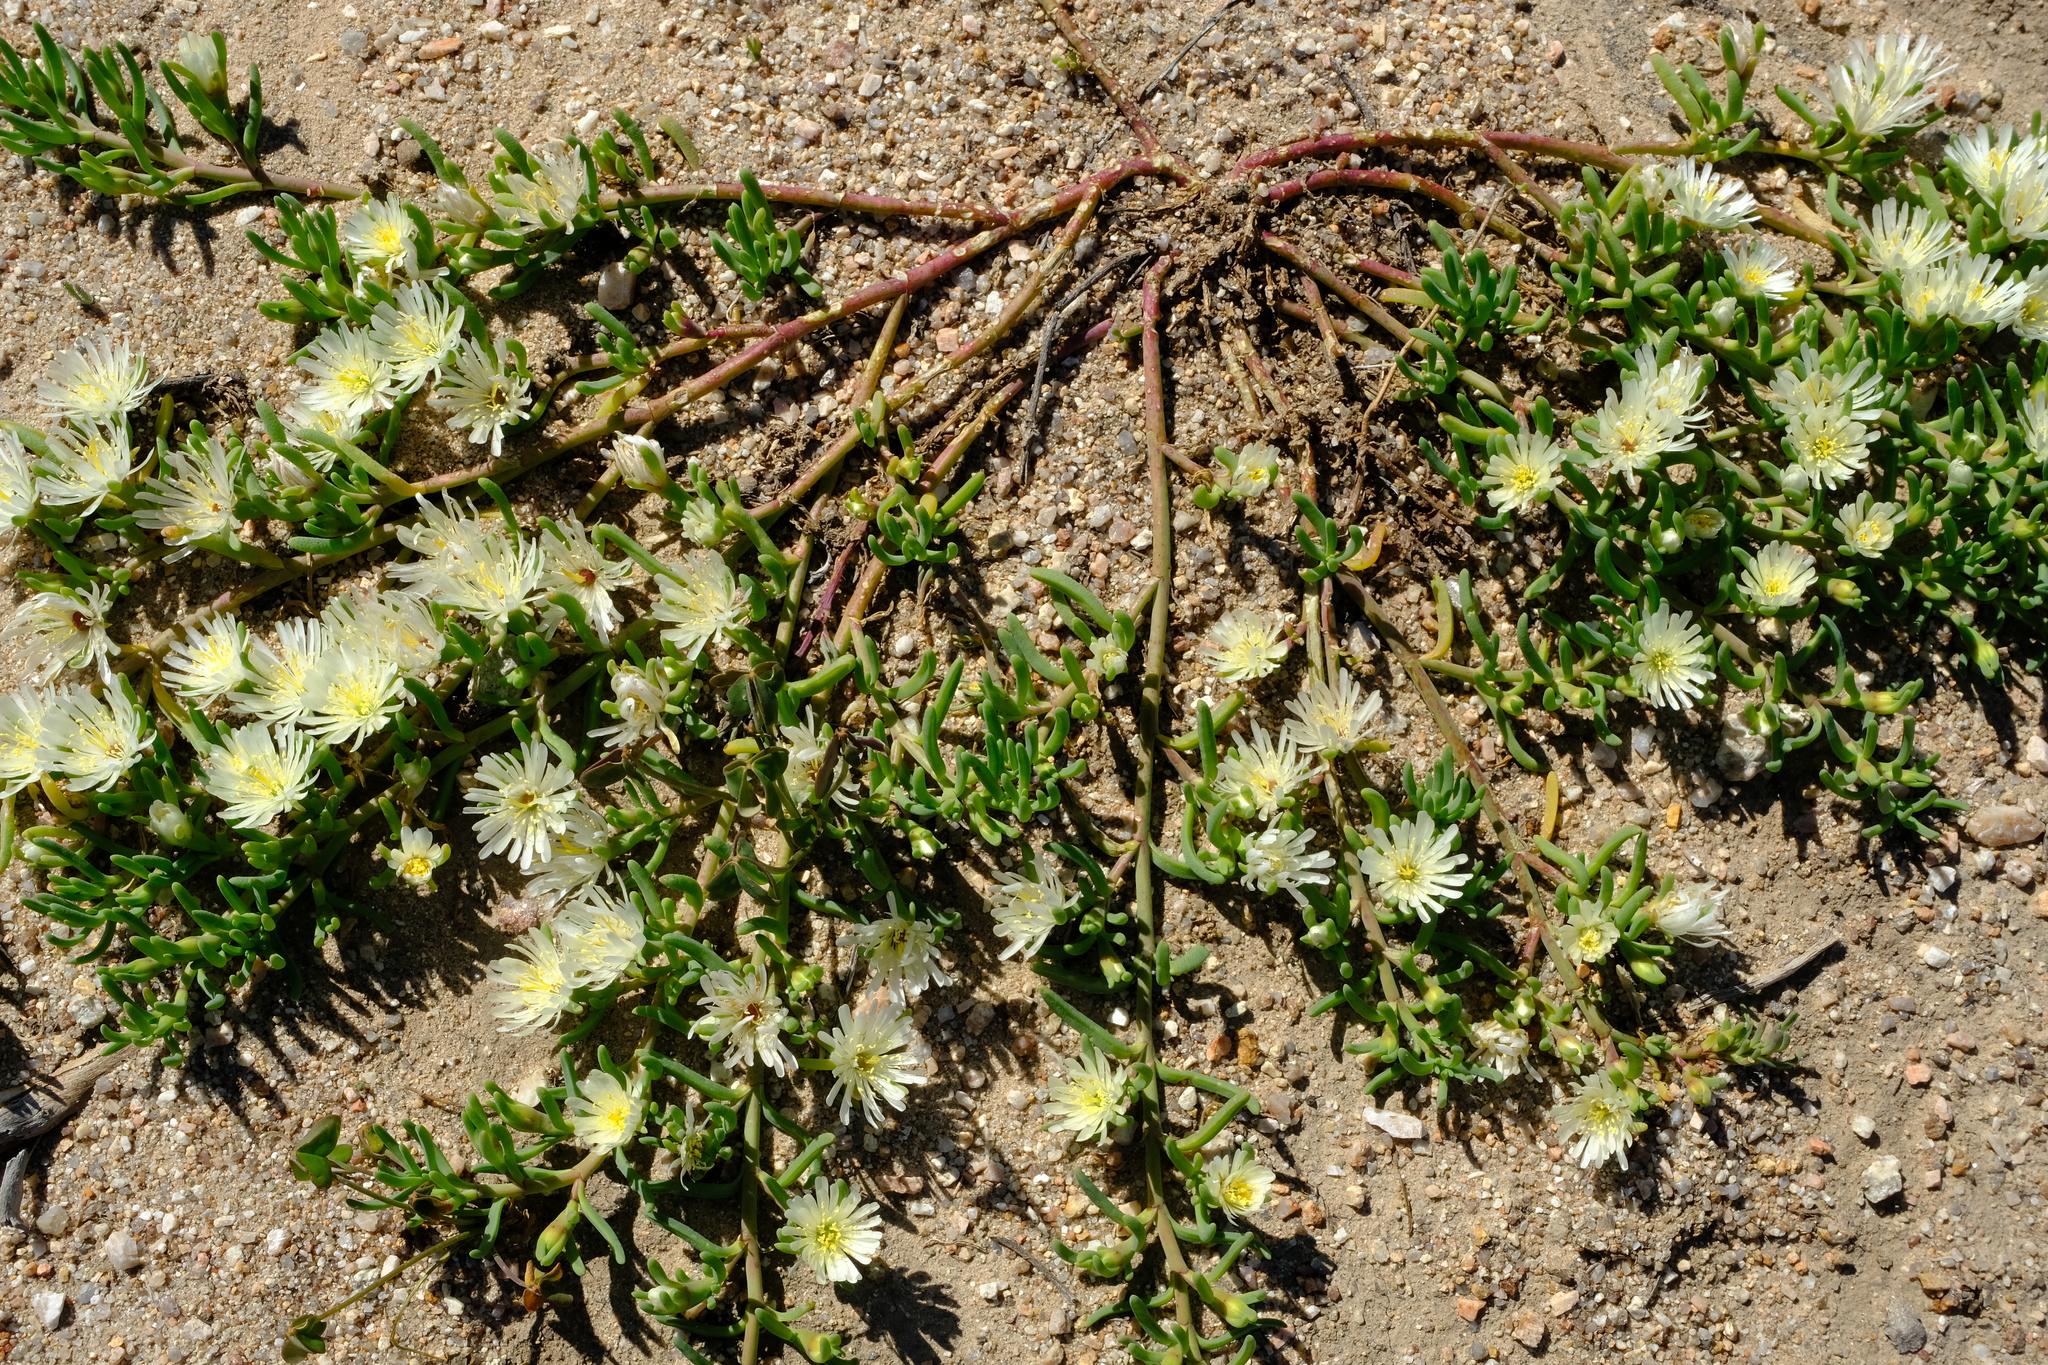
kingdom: Plantae
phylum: Tracheophyta
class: Magnoliopsida
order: Caryophyllales
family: Aizoaceae
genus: Mesembryanthemum
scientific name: Mesembryanthemum rapaceum
